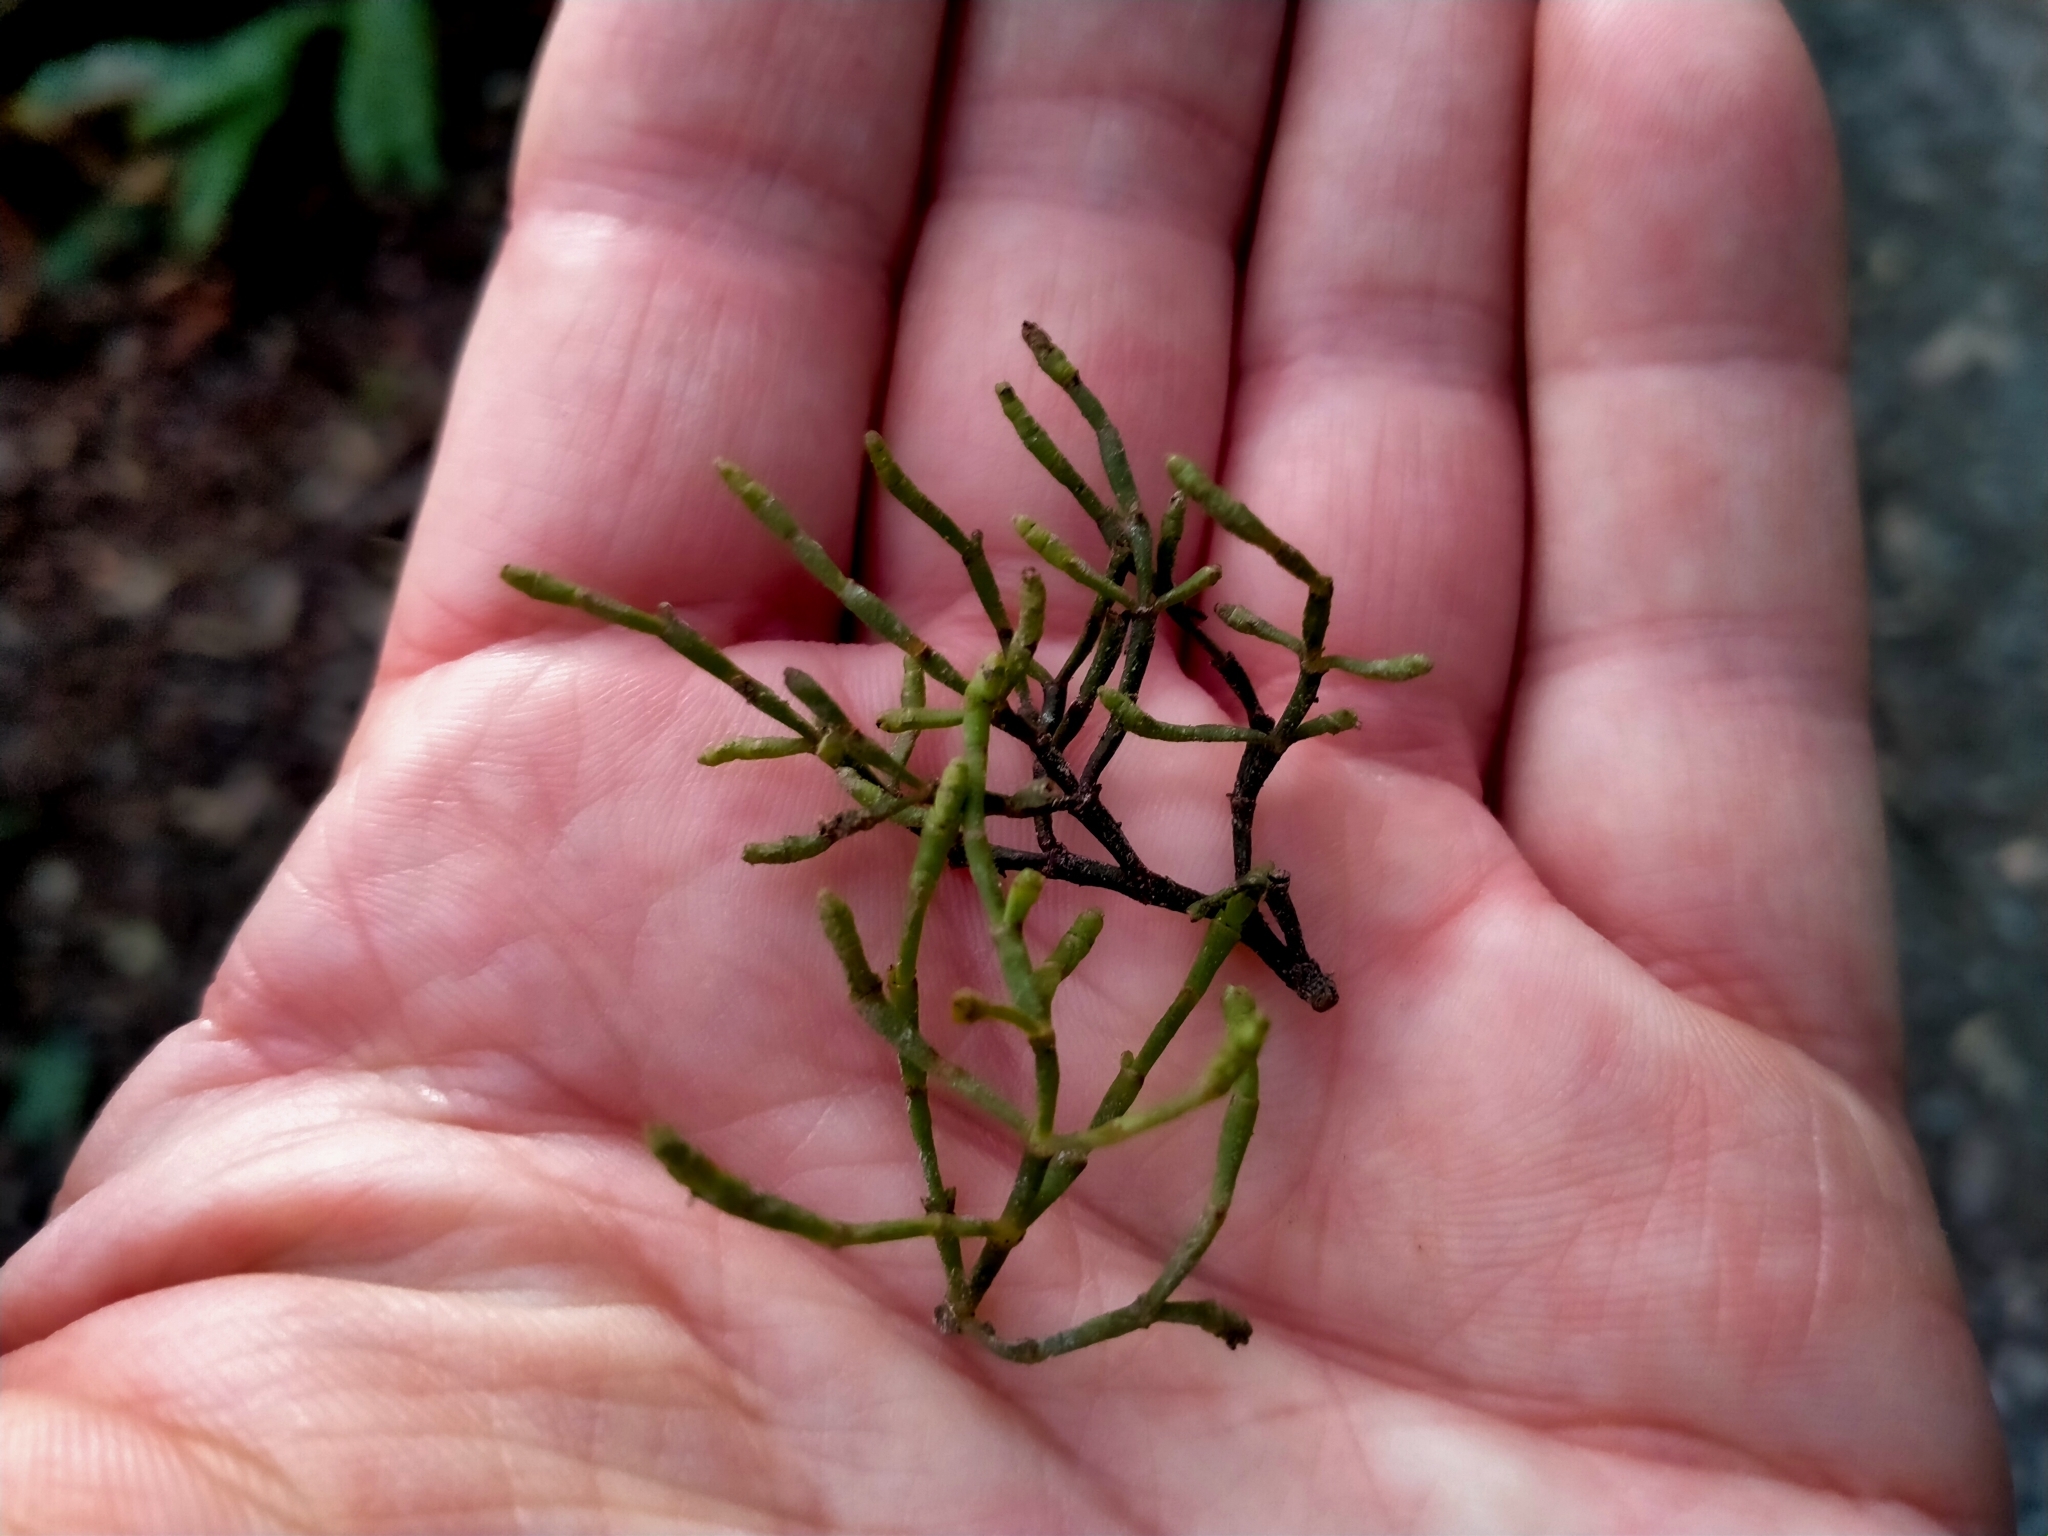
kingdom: Plantae
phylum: Tracheophyta
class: Magnoliopsida
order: Santalales
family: Viscaceae
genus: Korthalsella
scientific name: Korthalsella salicornioides
